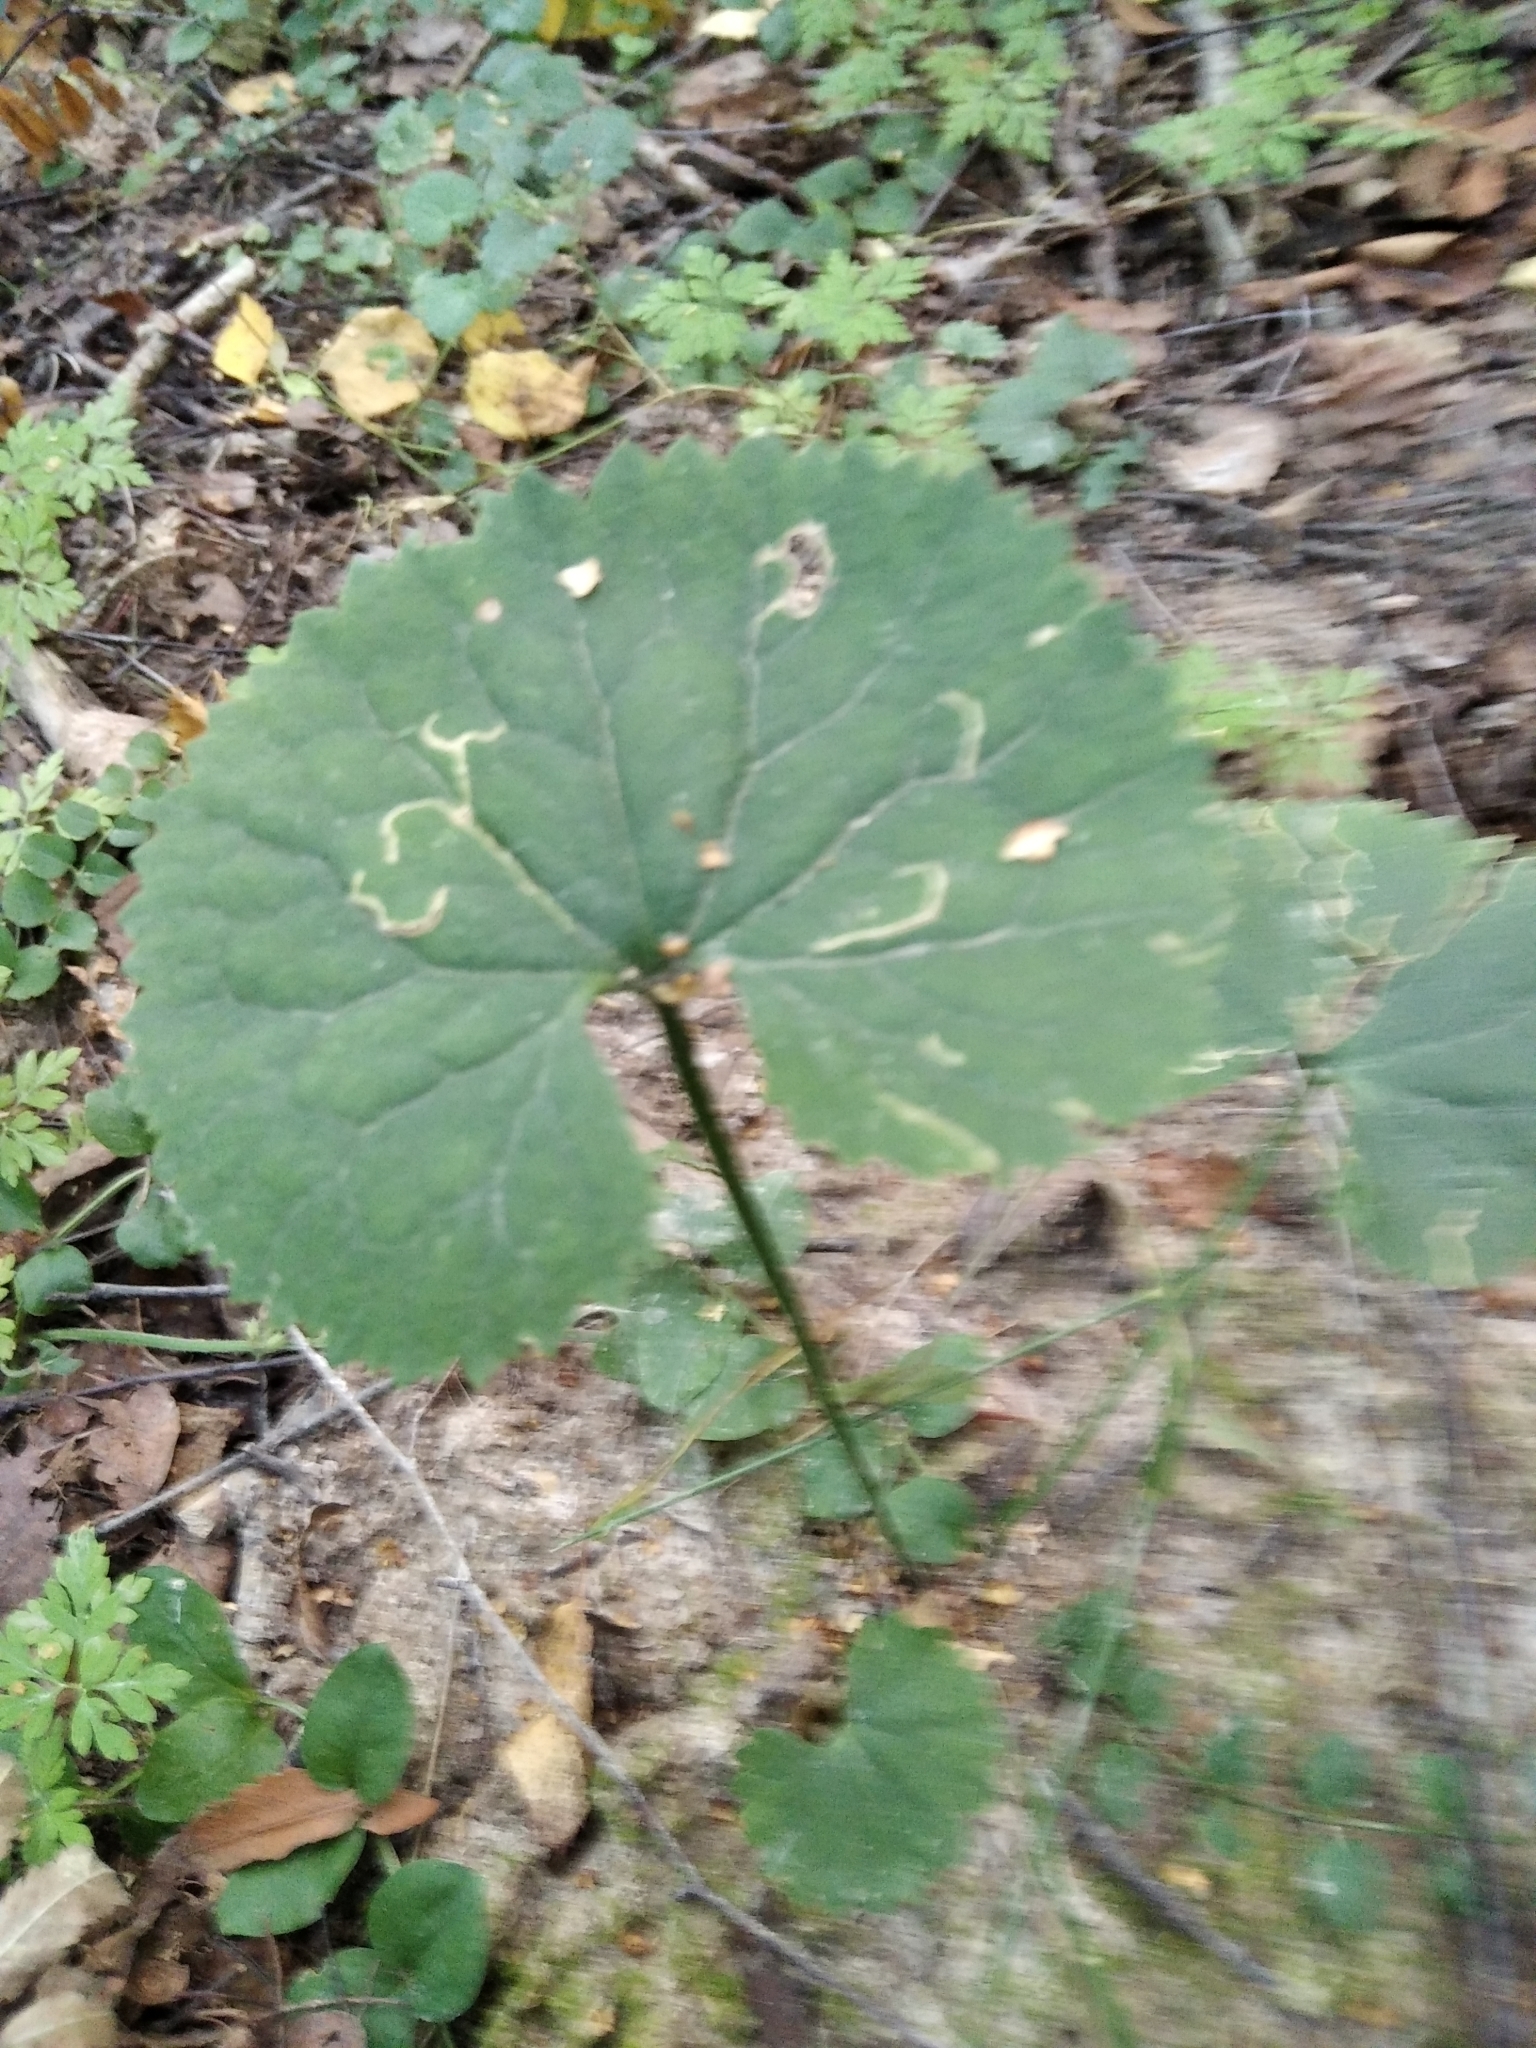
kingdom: Plantae
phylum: Tracheophyta
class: Magnoliopsida
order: Ranunculales
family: Ranunculaceae
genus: Ranunculus
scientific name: Ranunculus cassubicus
